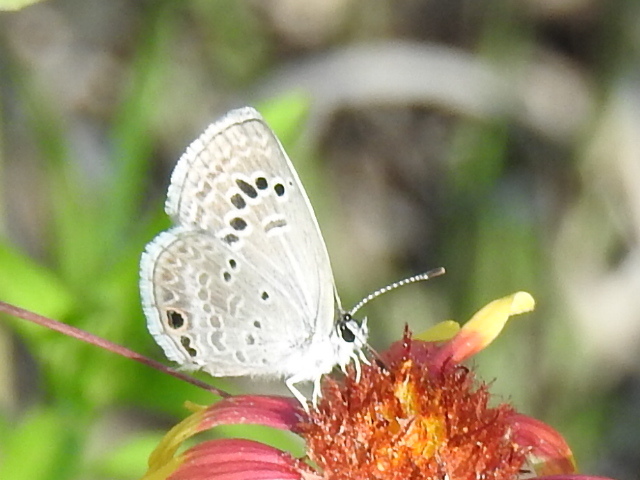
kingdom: Animalia
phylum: Arthropoda
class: Insecta
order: Lepidoptera
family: Lycaenidae
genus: Echinargus
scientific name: Echinargus isola
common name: Reakirt's blue
